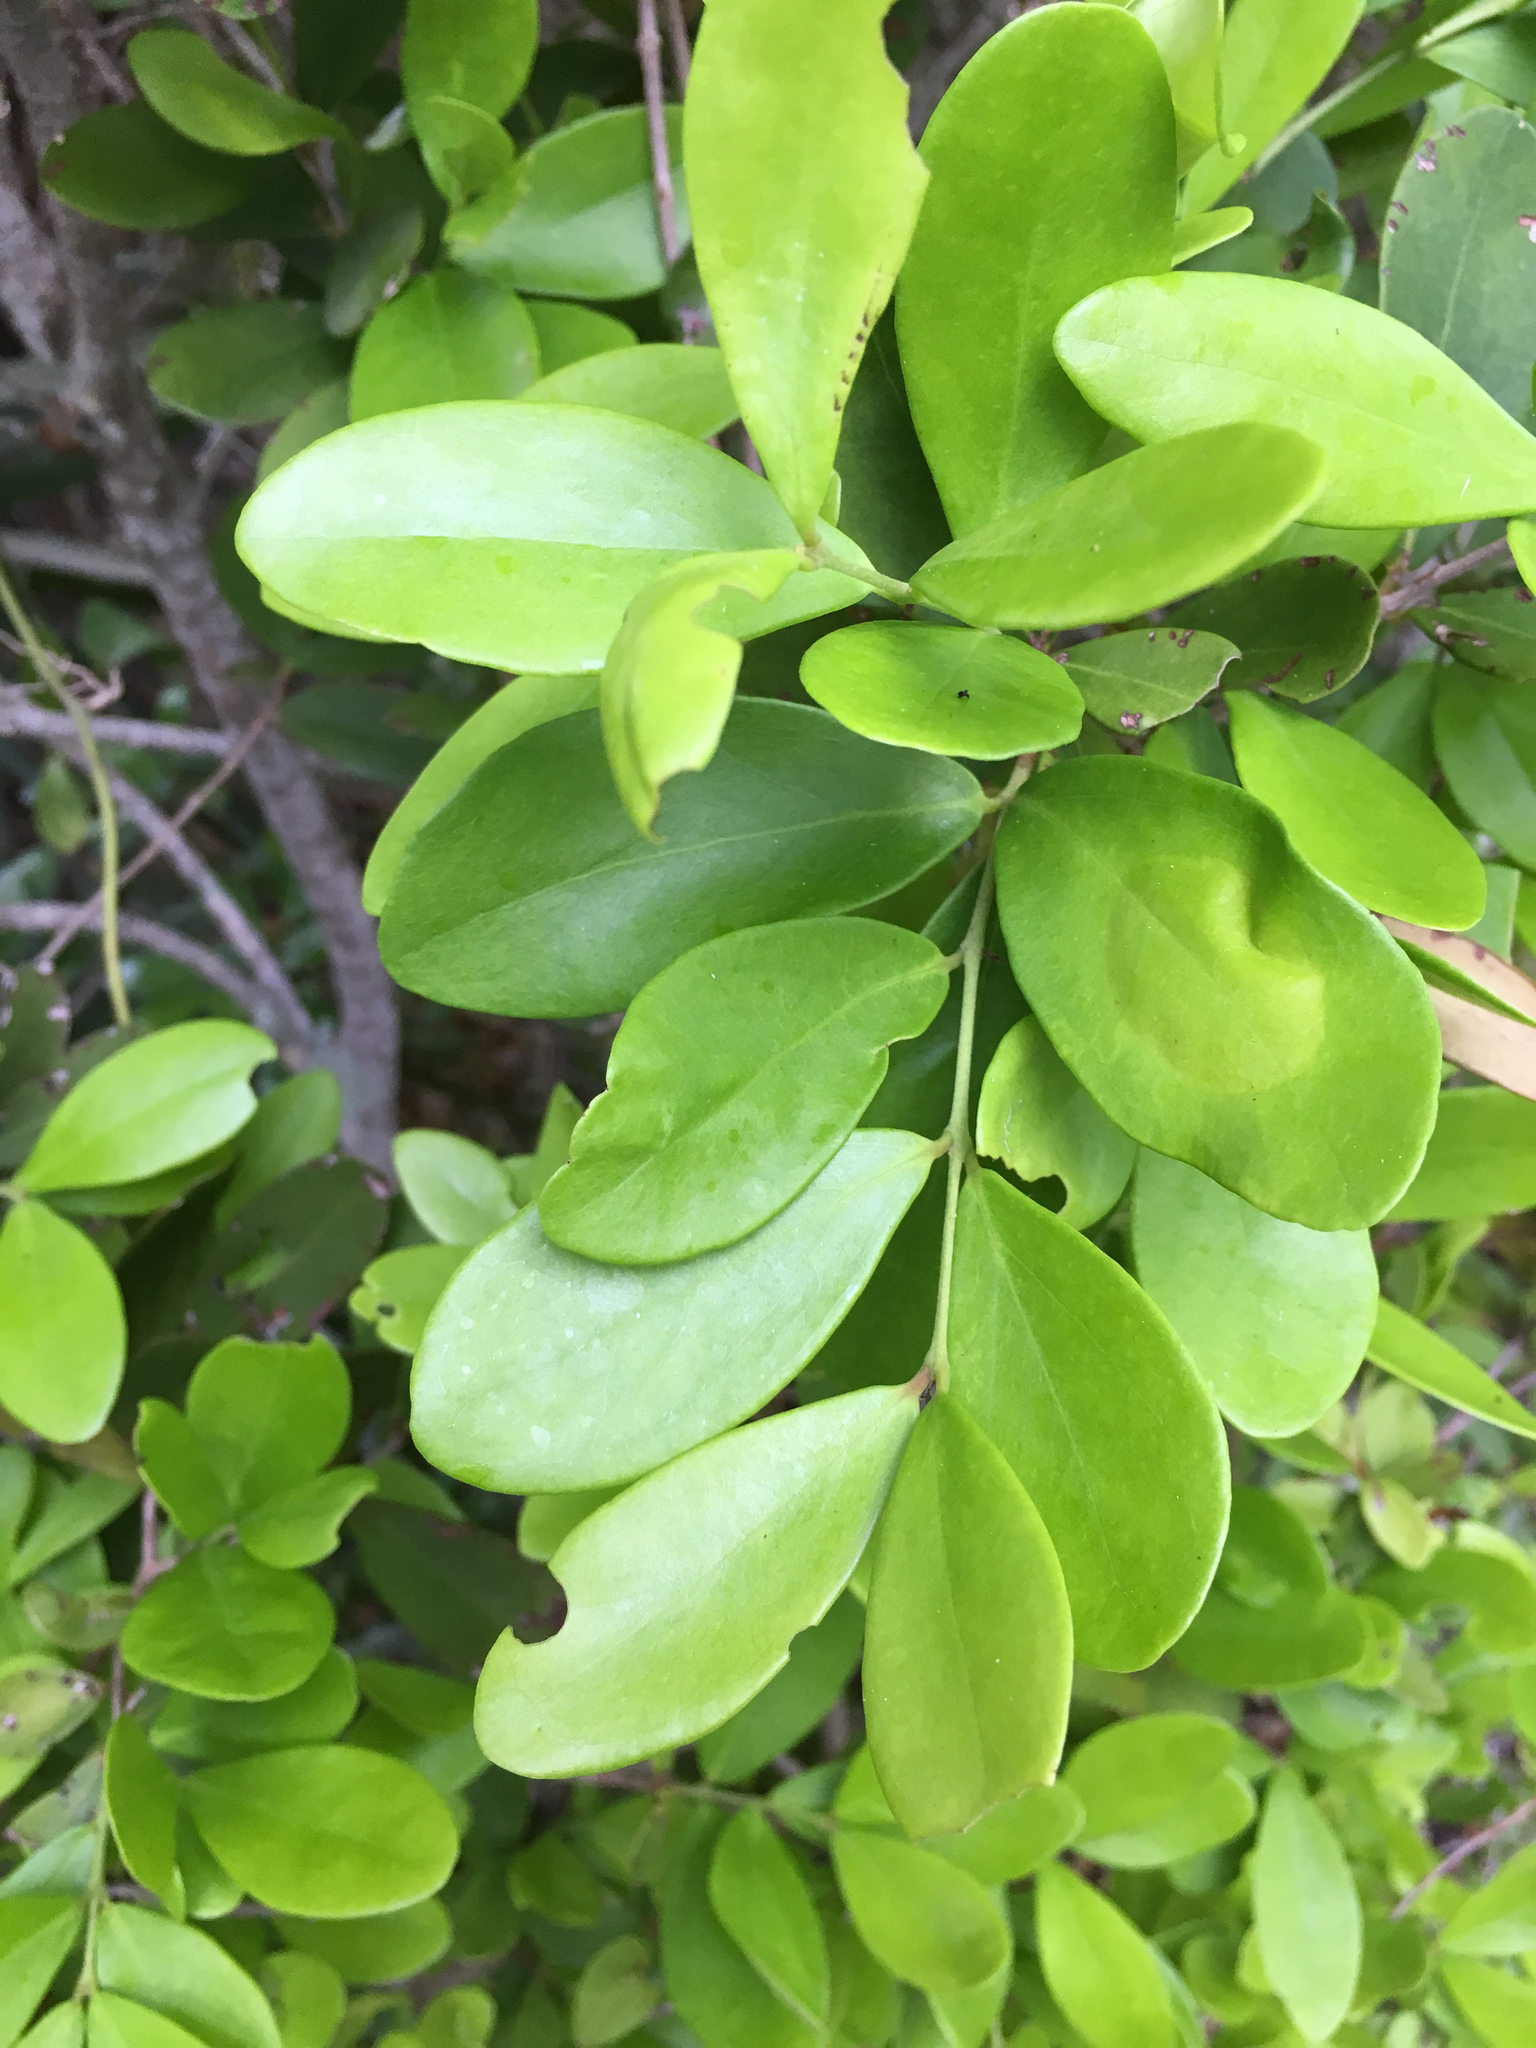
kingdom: Plantae
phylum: Tracheophyta
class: Magnoliopsida
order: Myrtales
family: Myrtaceae
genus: Eugenia
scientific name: Eugenia foetida
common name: White wattling
